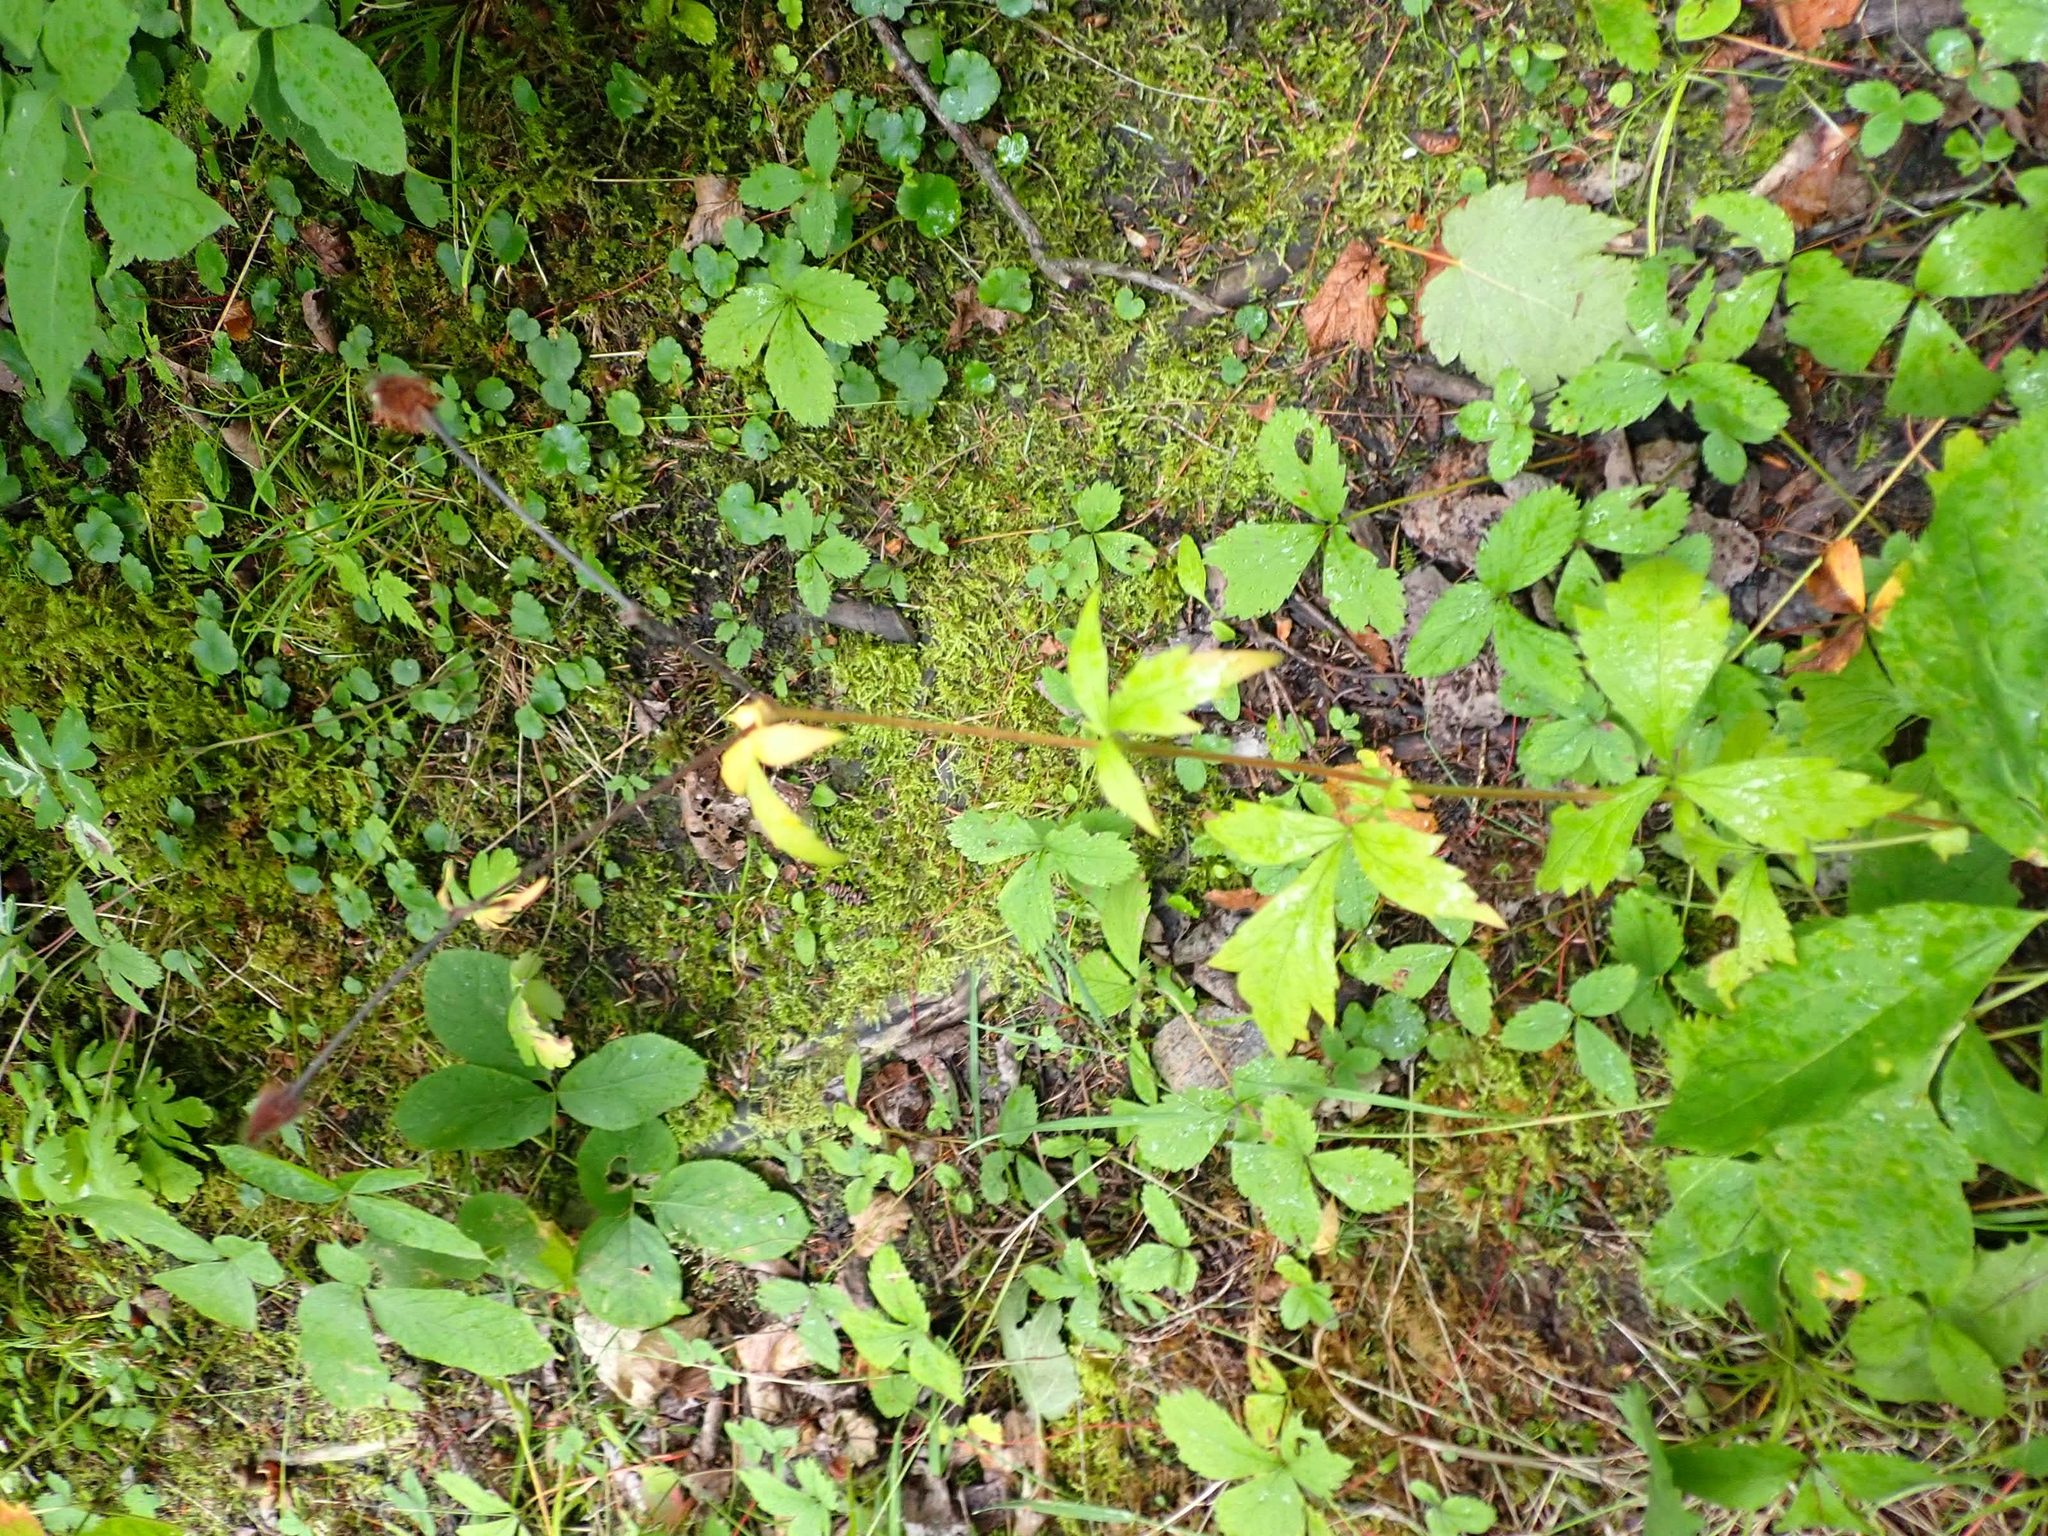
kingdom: Plantae
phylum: Tracheophyta
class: Magnoliopsida
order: Rosales
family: Rosaceae
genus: Geum
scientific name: Geum aleppicum
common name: Yellow avens
